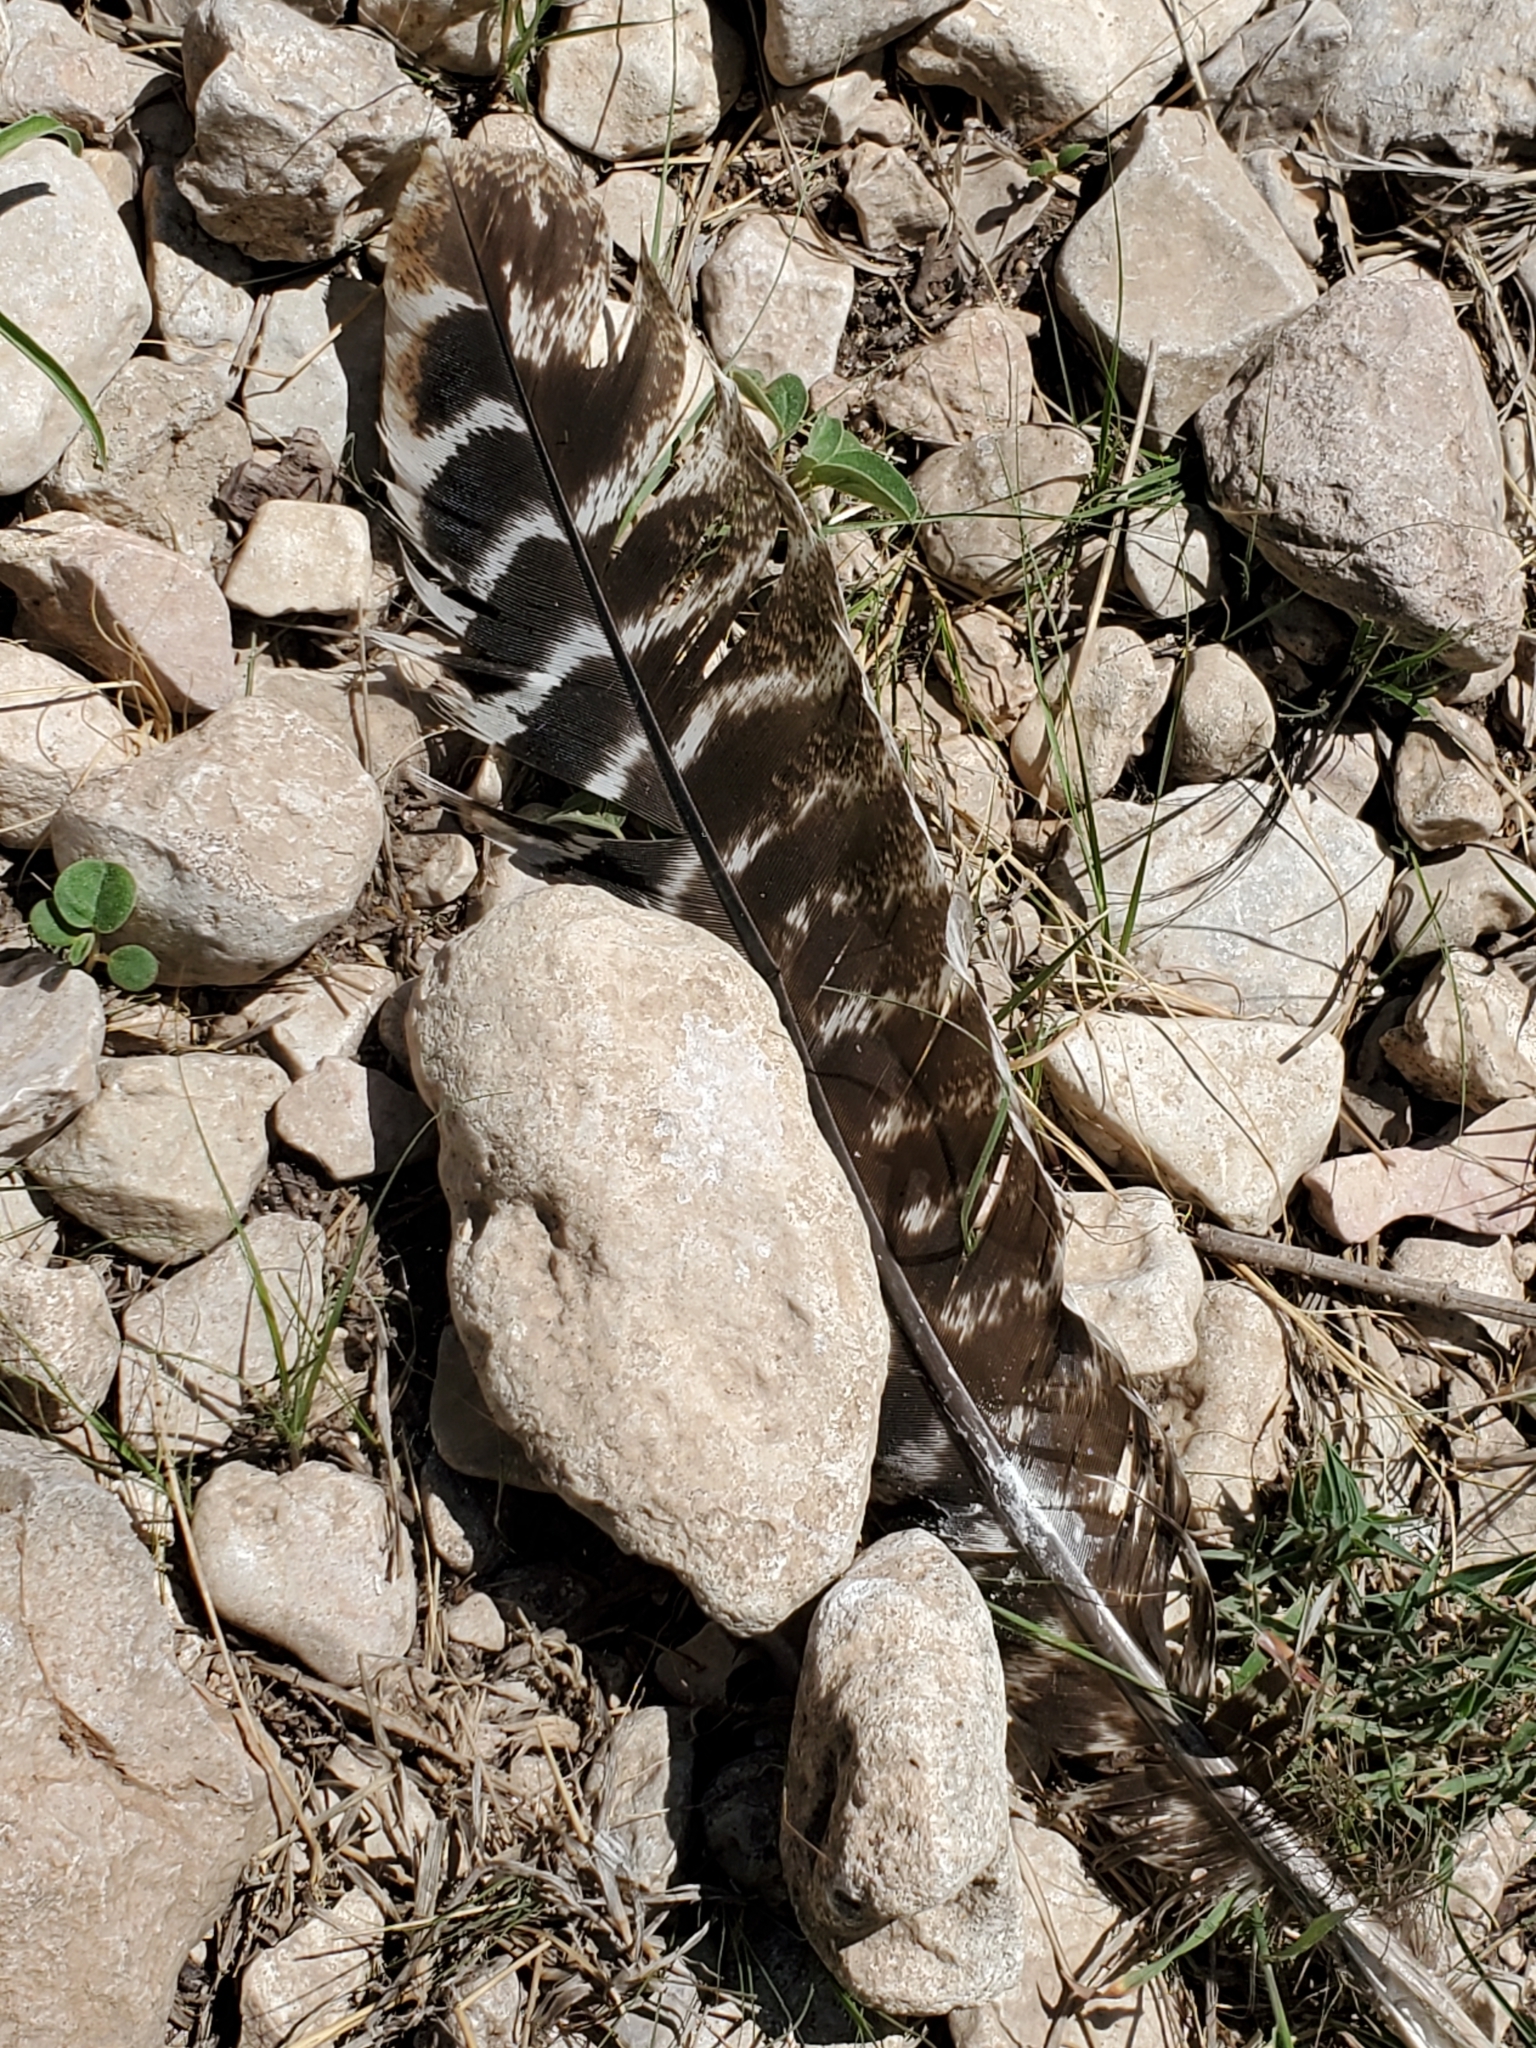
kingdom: Animalia
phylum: Chordata
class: Aves
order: Galliformes
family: Phasianidae
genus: Meleagris
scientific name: Meleagris gallopavo
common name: Wild turkey
